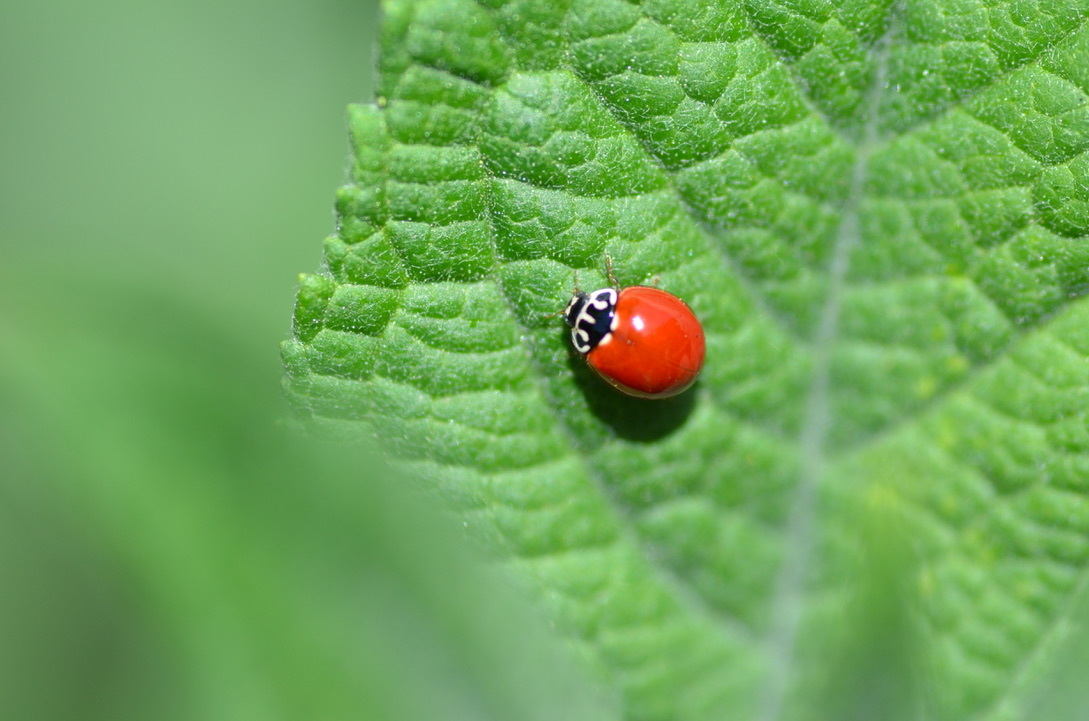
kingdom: Animalia
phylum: Arthropoda
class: Insecta
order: Coleoptera
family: Coccinellidae
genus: Cycloneda
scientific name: Cycloneda polita
